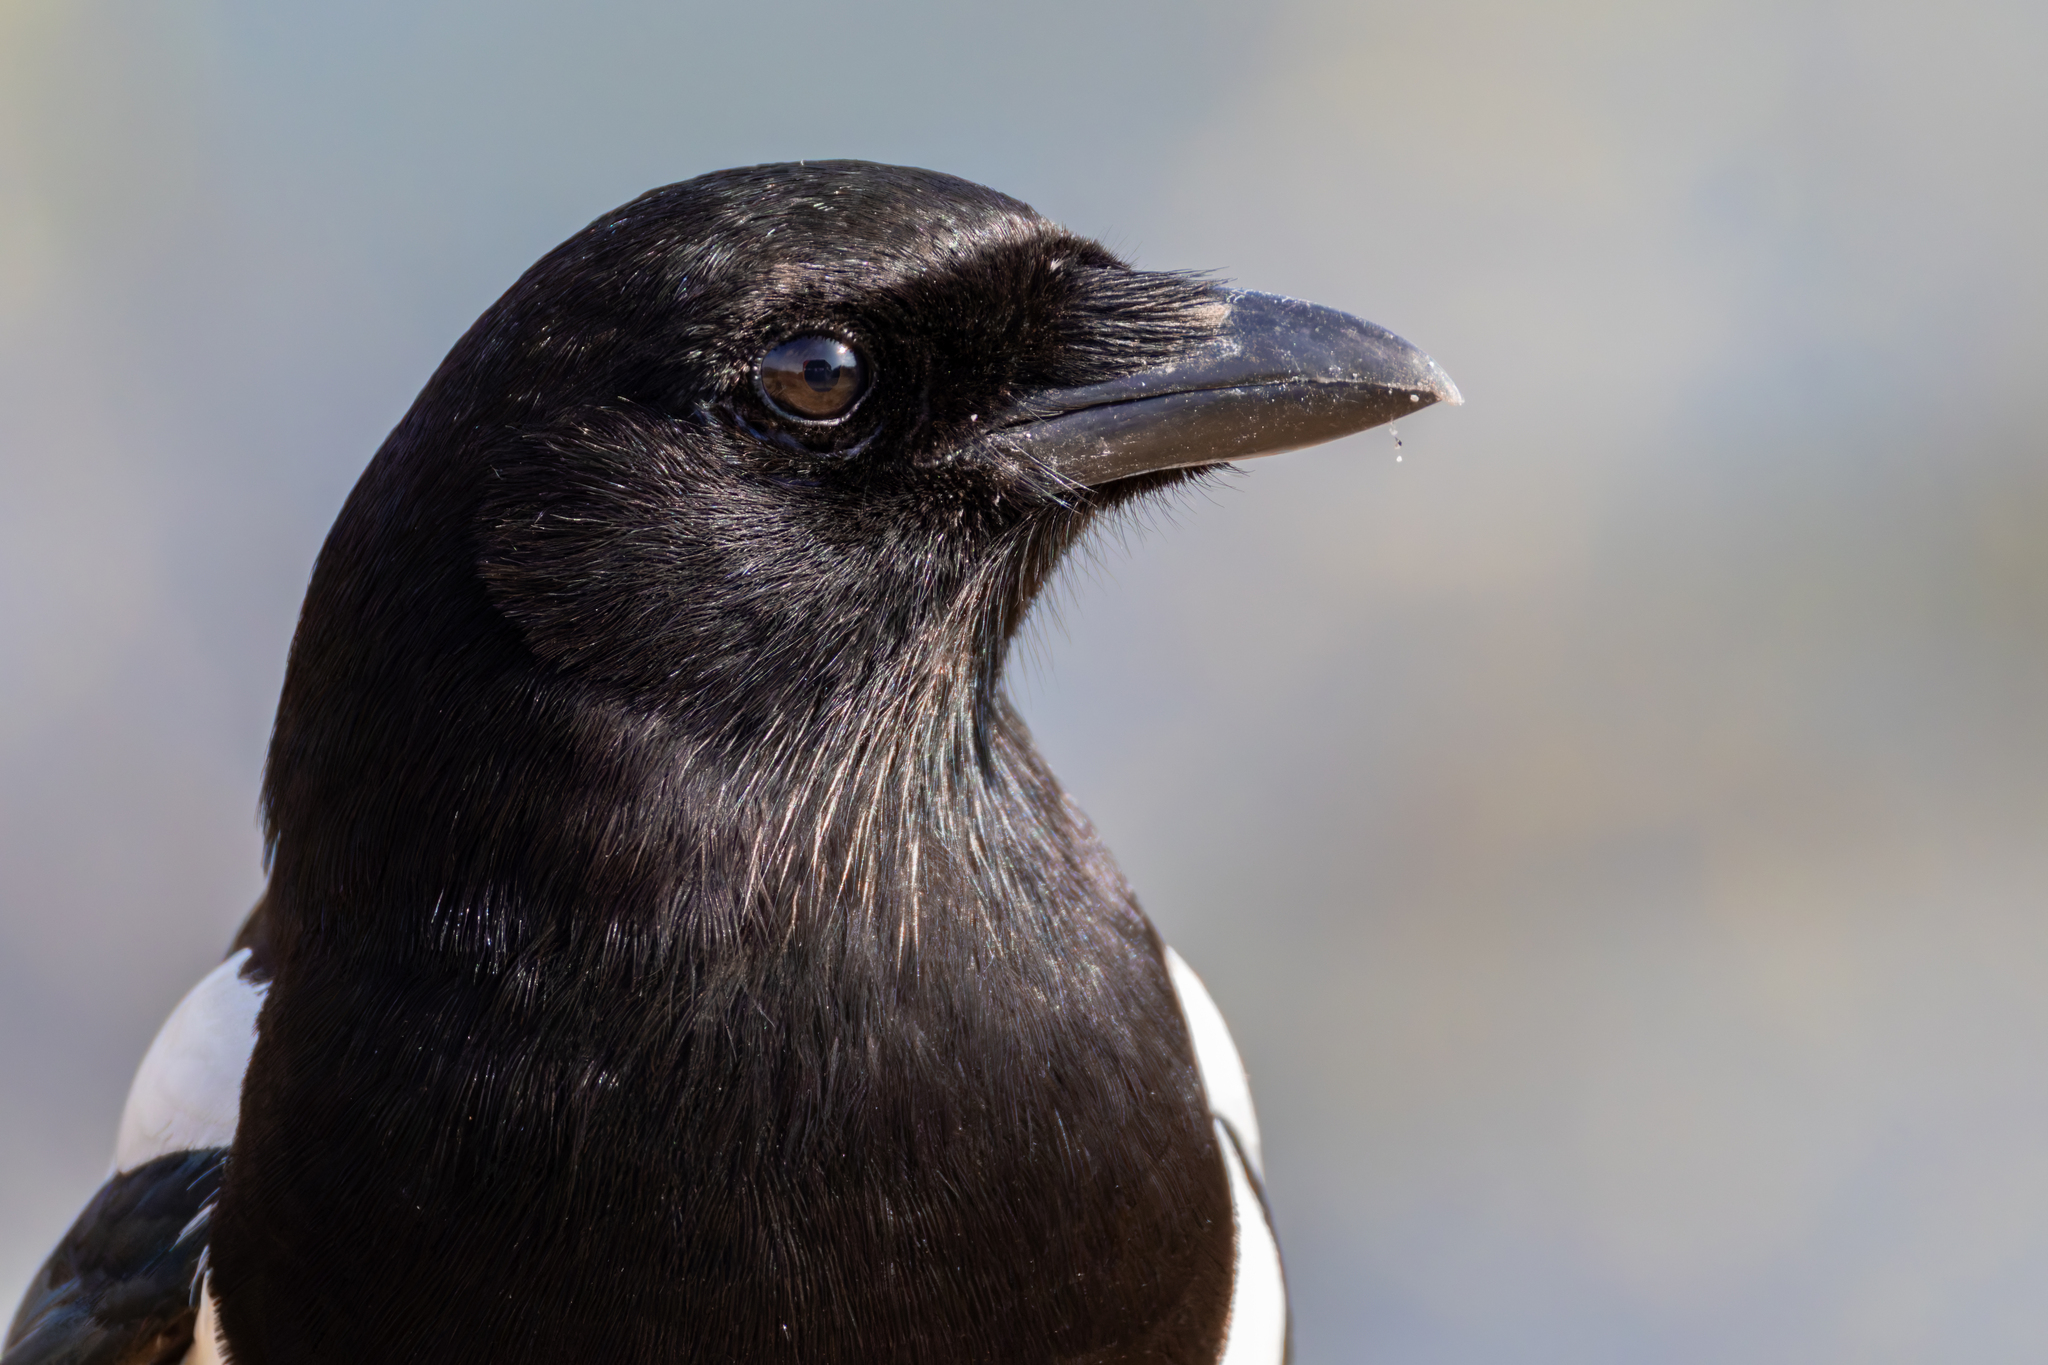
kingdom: Animalia
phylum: Chordata
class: Aves
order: Passeriformes
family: Corvidae
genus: Pica
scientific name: Pica pica
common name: Eurasian magpie
